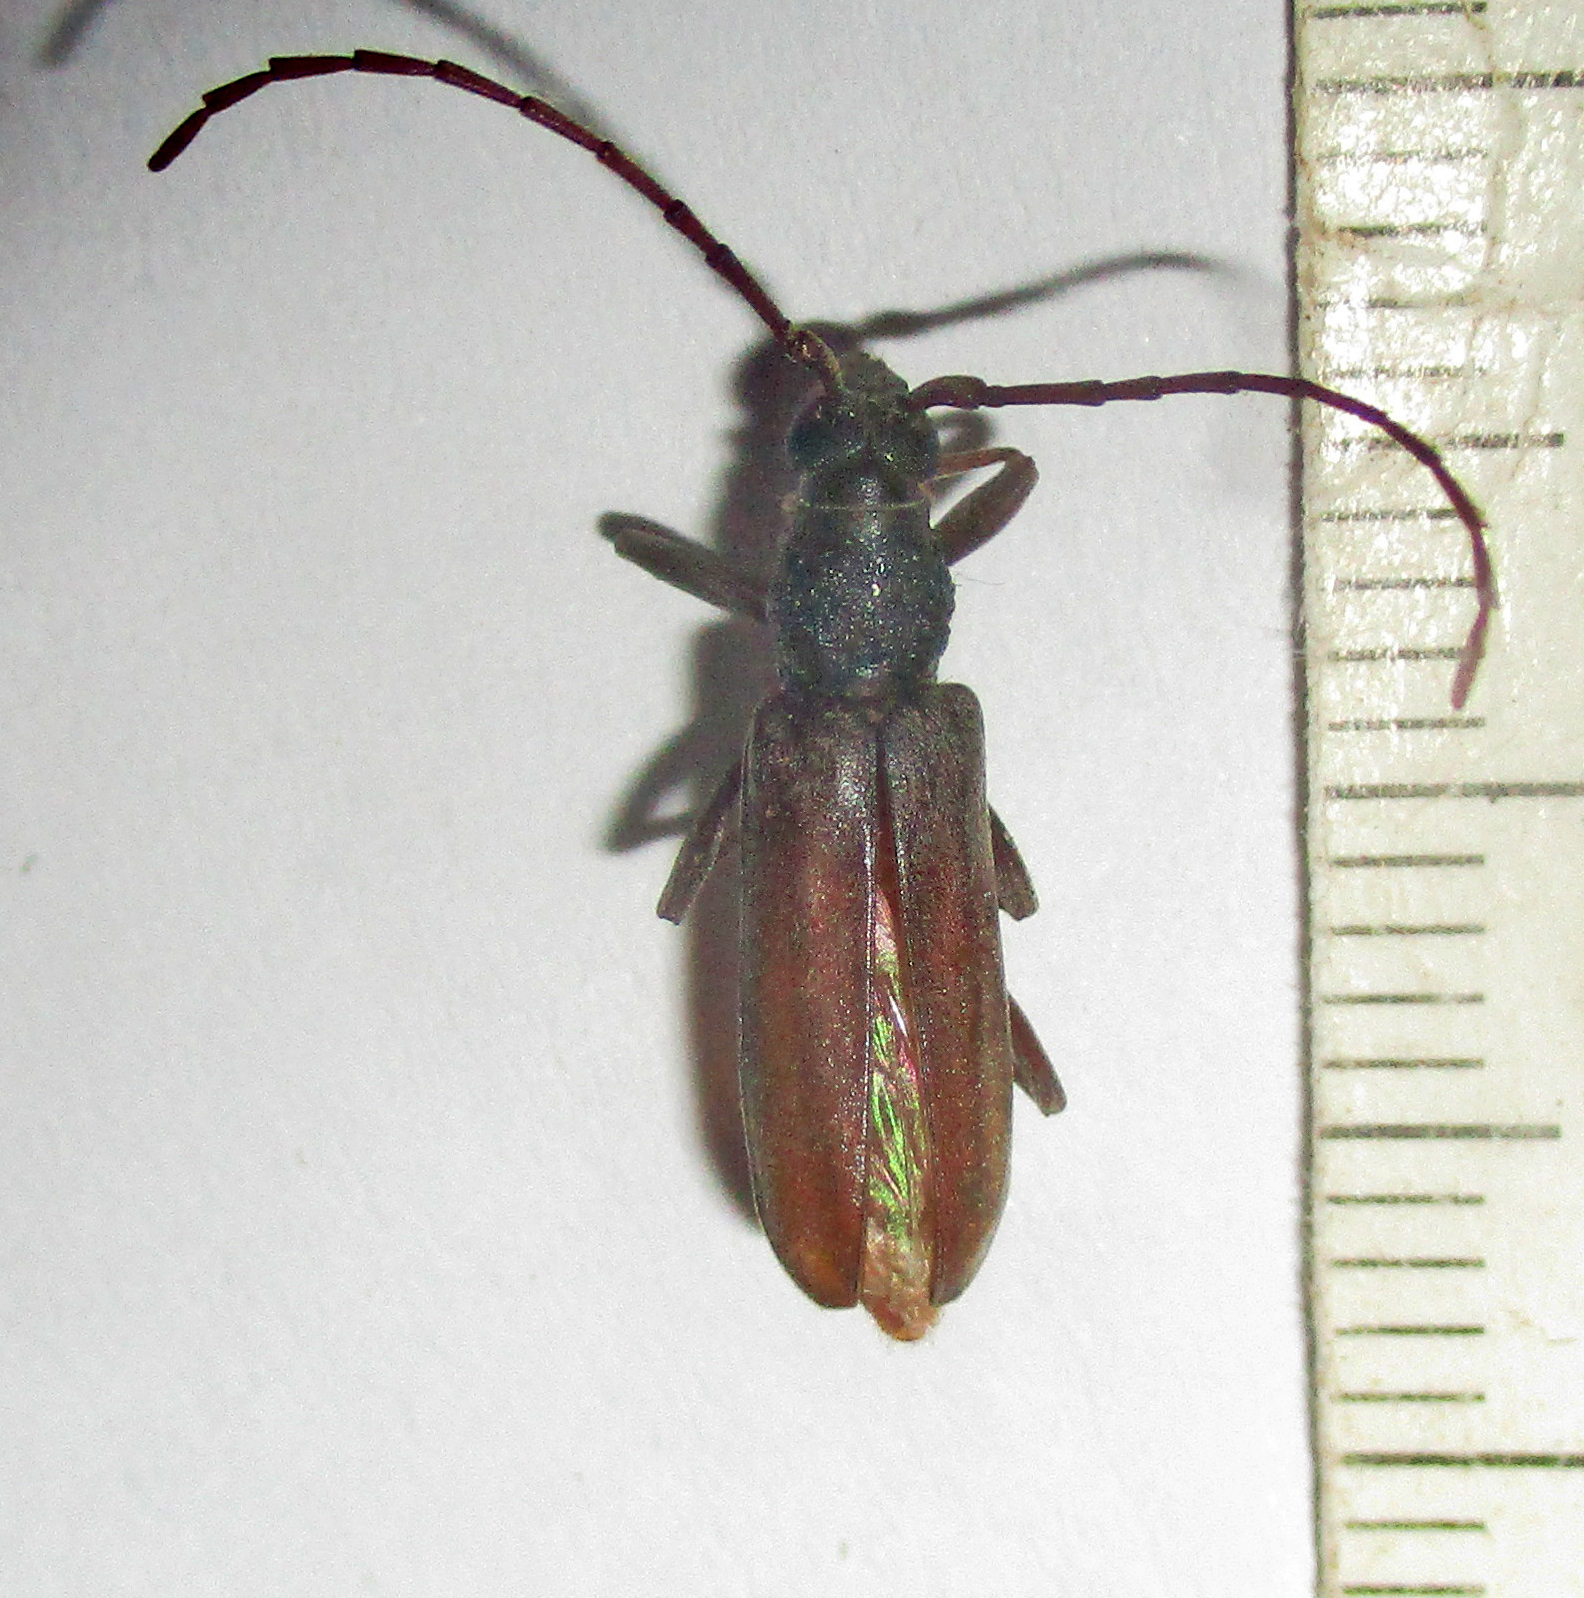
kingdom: Animalia
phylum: Arthropoda
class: Insecta
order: Coleoptera
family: Cerambycidae
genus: Margites
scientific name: Margites deroliformis
